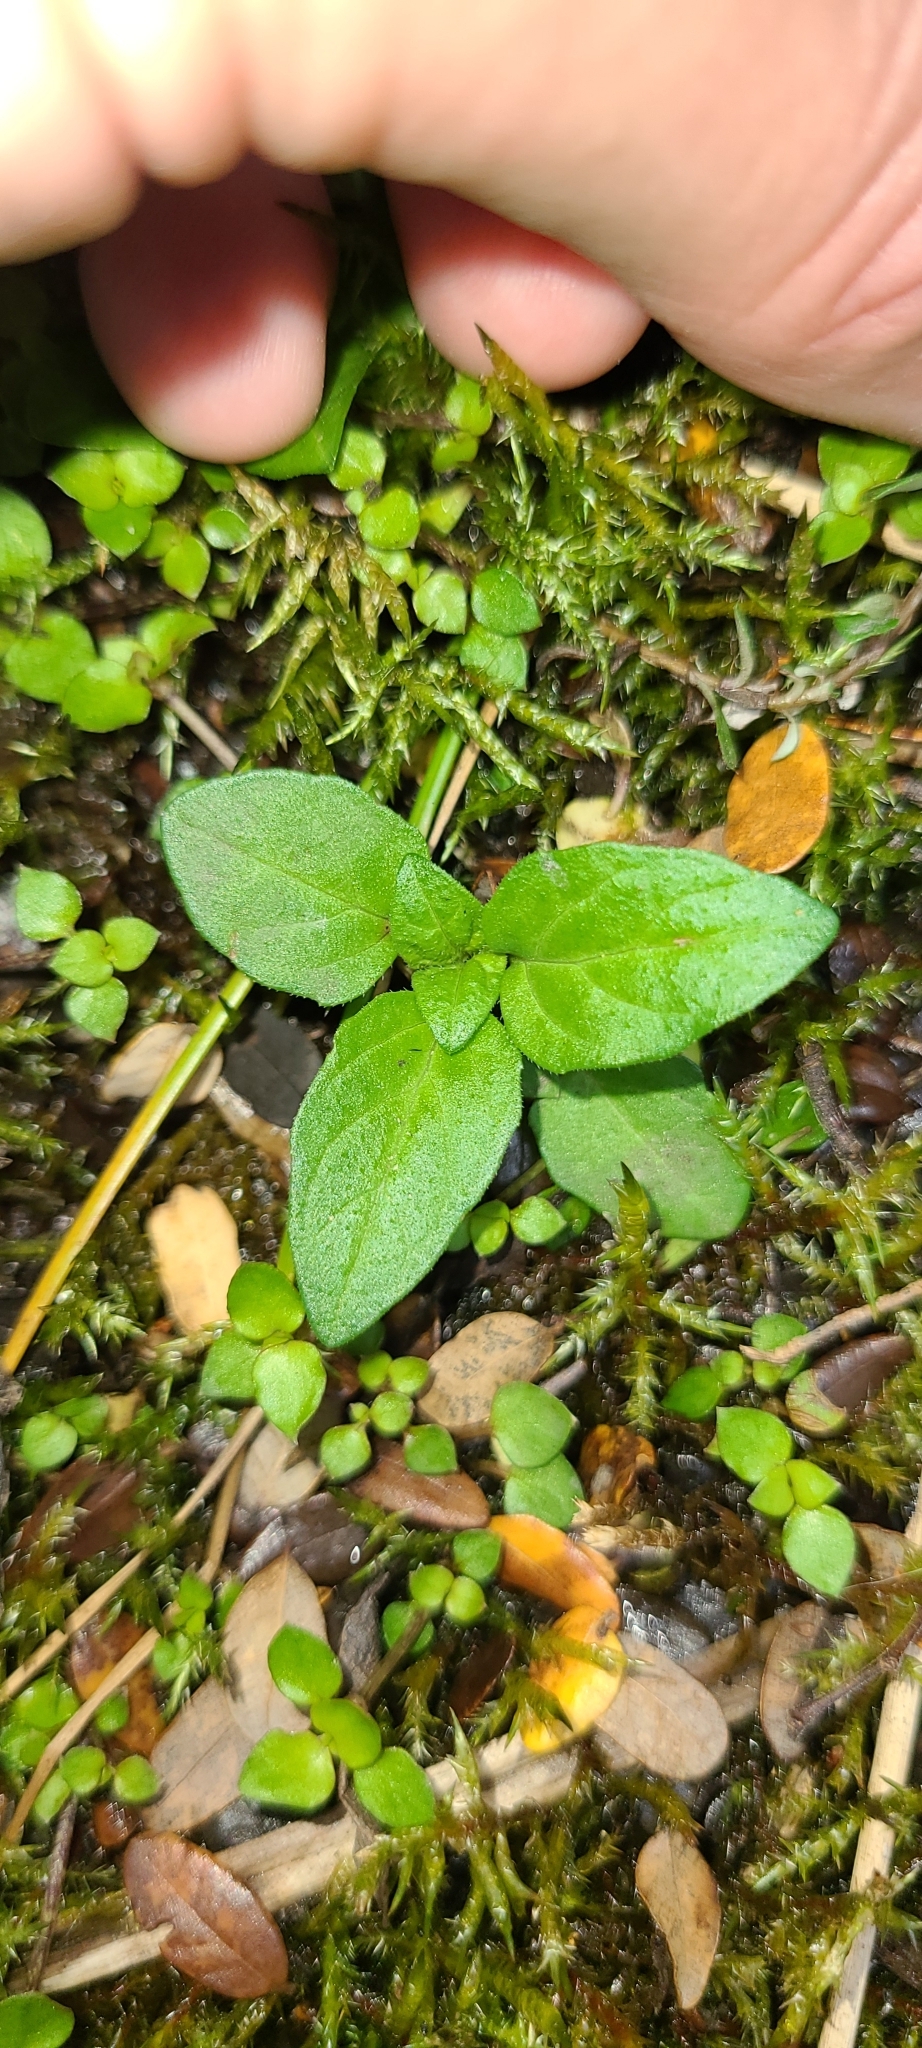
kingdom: Plantae
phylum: Tracheophyta
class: Magnoliopsida
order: Lamiales
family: Lamiaceae
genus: Prunella
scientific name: Prunella vulgaris
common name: Heal-all
